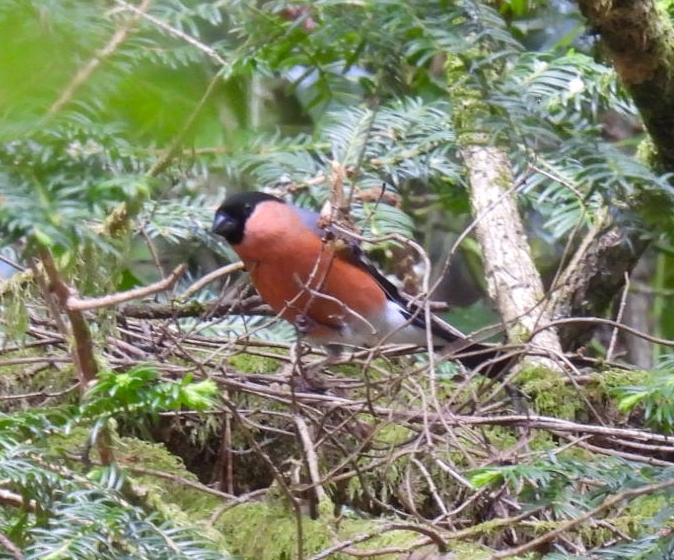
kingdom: Animalia
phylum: Chordata
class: Aves
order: Passeriformes
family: Fringillidae
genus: Pyrrhula
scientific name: Pyrrhula pyrrhula
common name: Eurasian bullfinch
